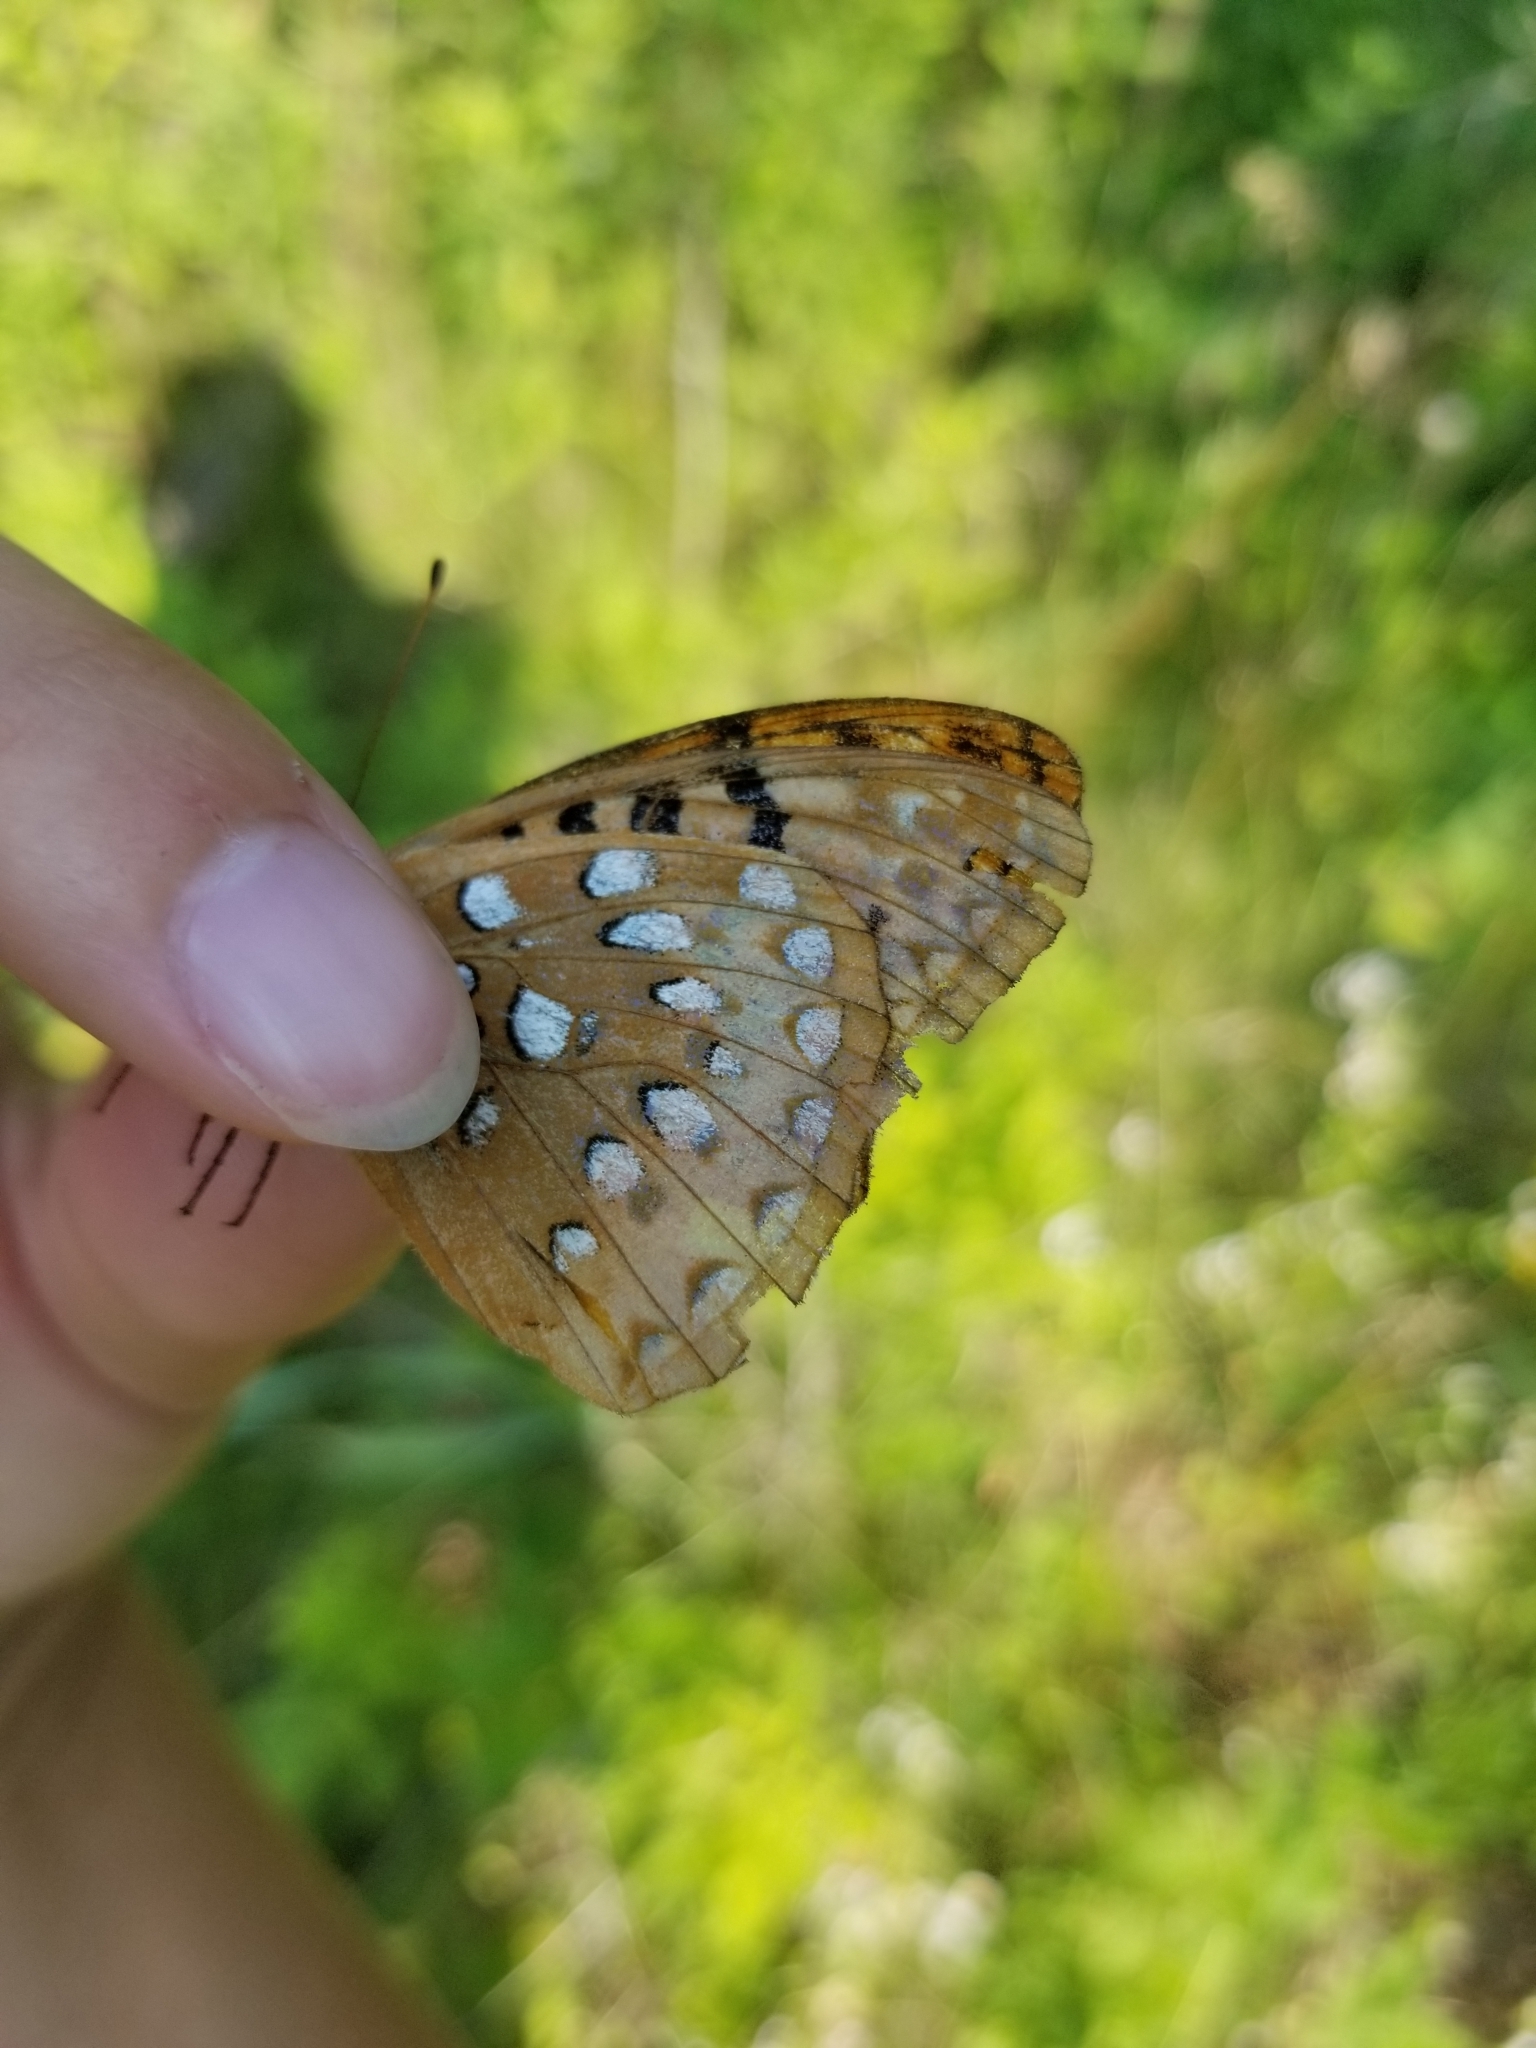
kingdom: Animalia
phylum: Arthropoda
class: Insecta
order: Lepidoptera
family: Nymphalidae
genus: Speyeria
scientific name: Speyeria cybele
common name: Great spangled fritillary
